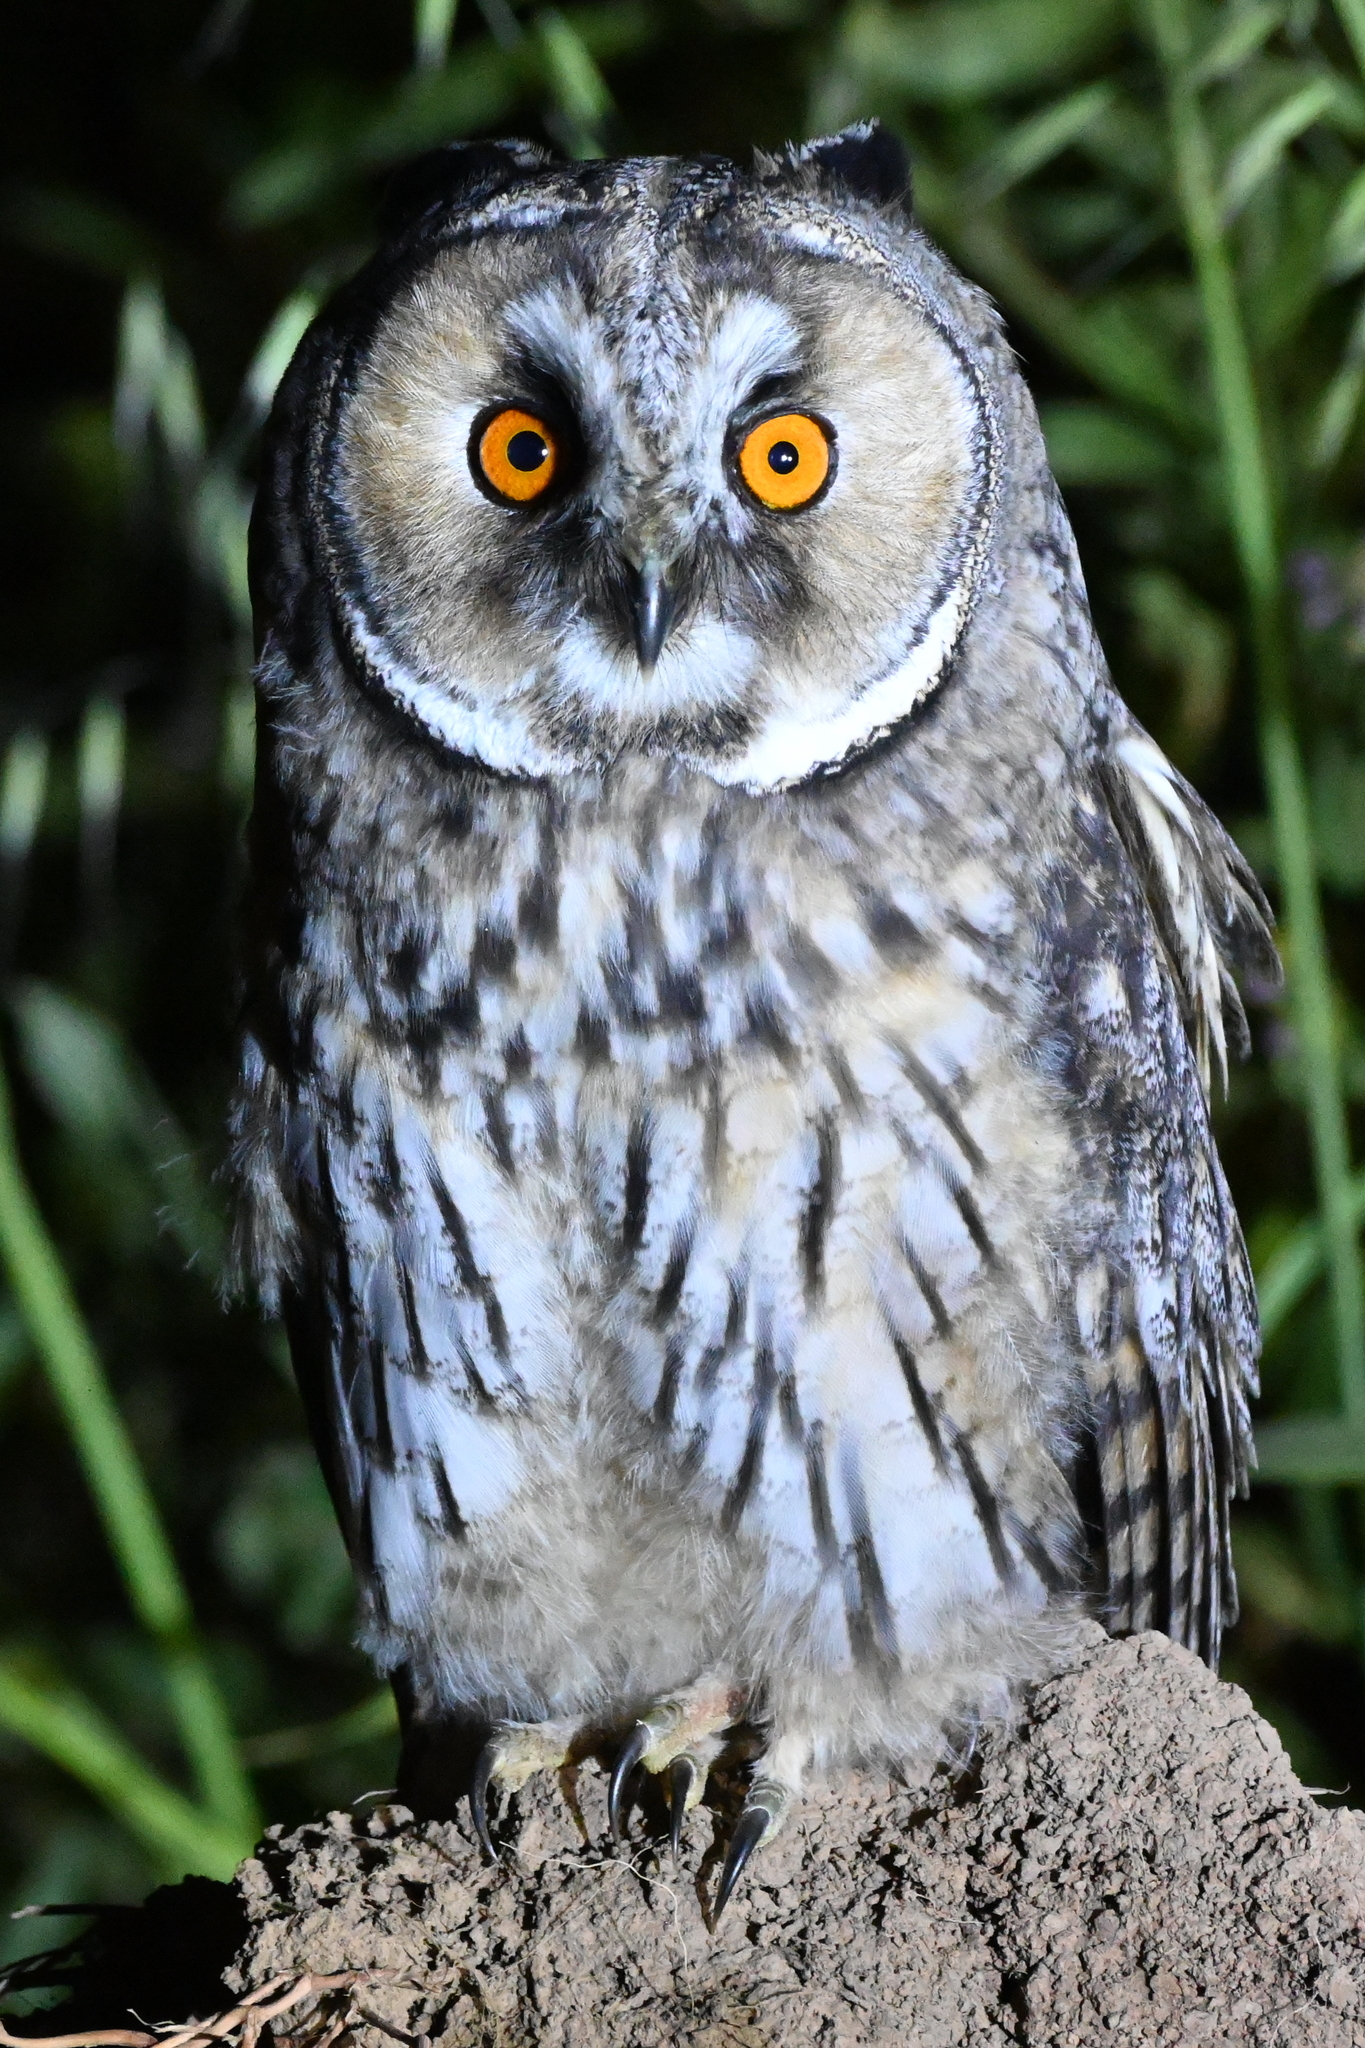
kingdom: Animalia
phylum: Chordata
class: Aves
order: Strigiformes
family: Strigidae
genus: Asio
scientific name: Asio otus
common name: Long-eared owl
